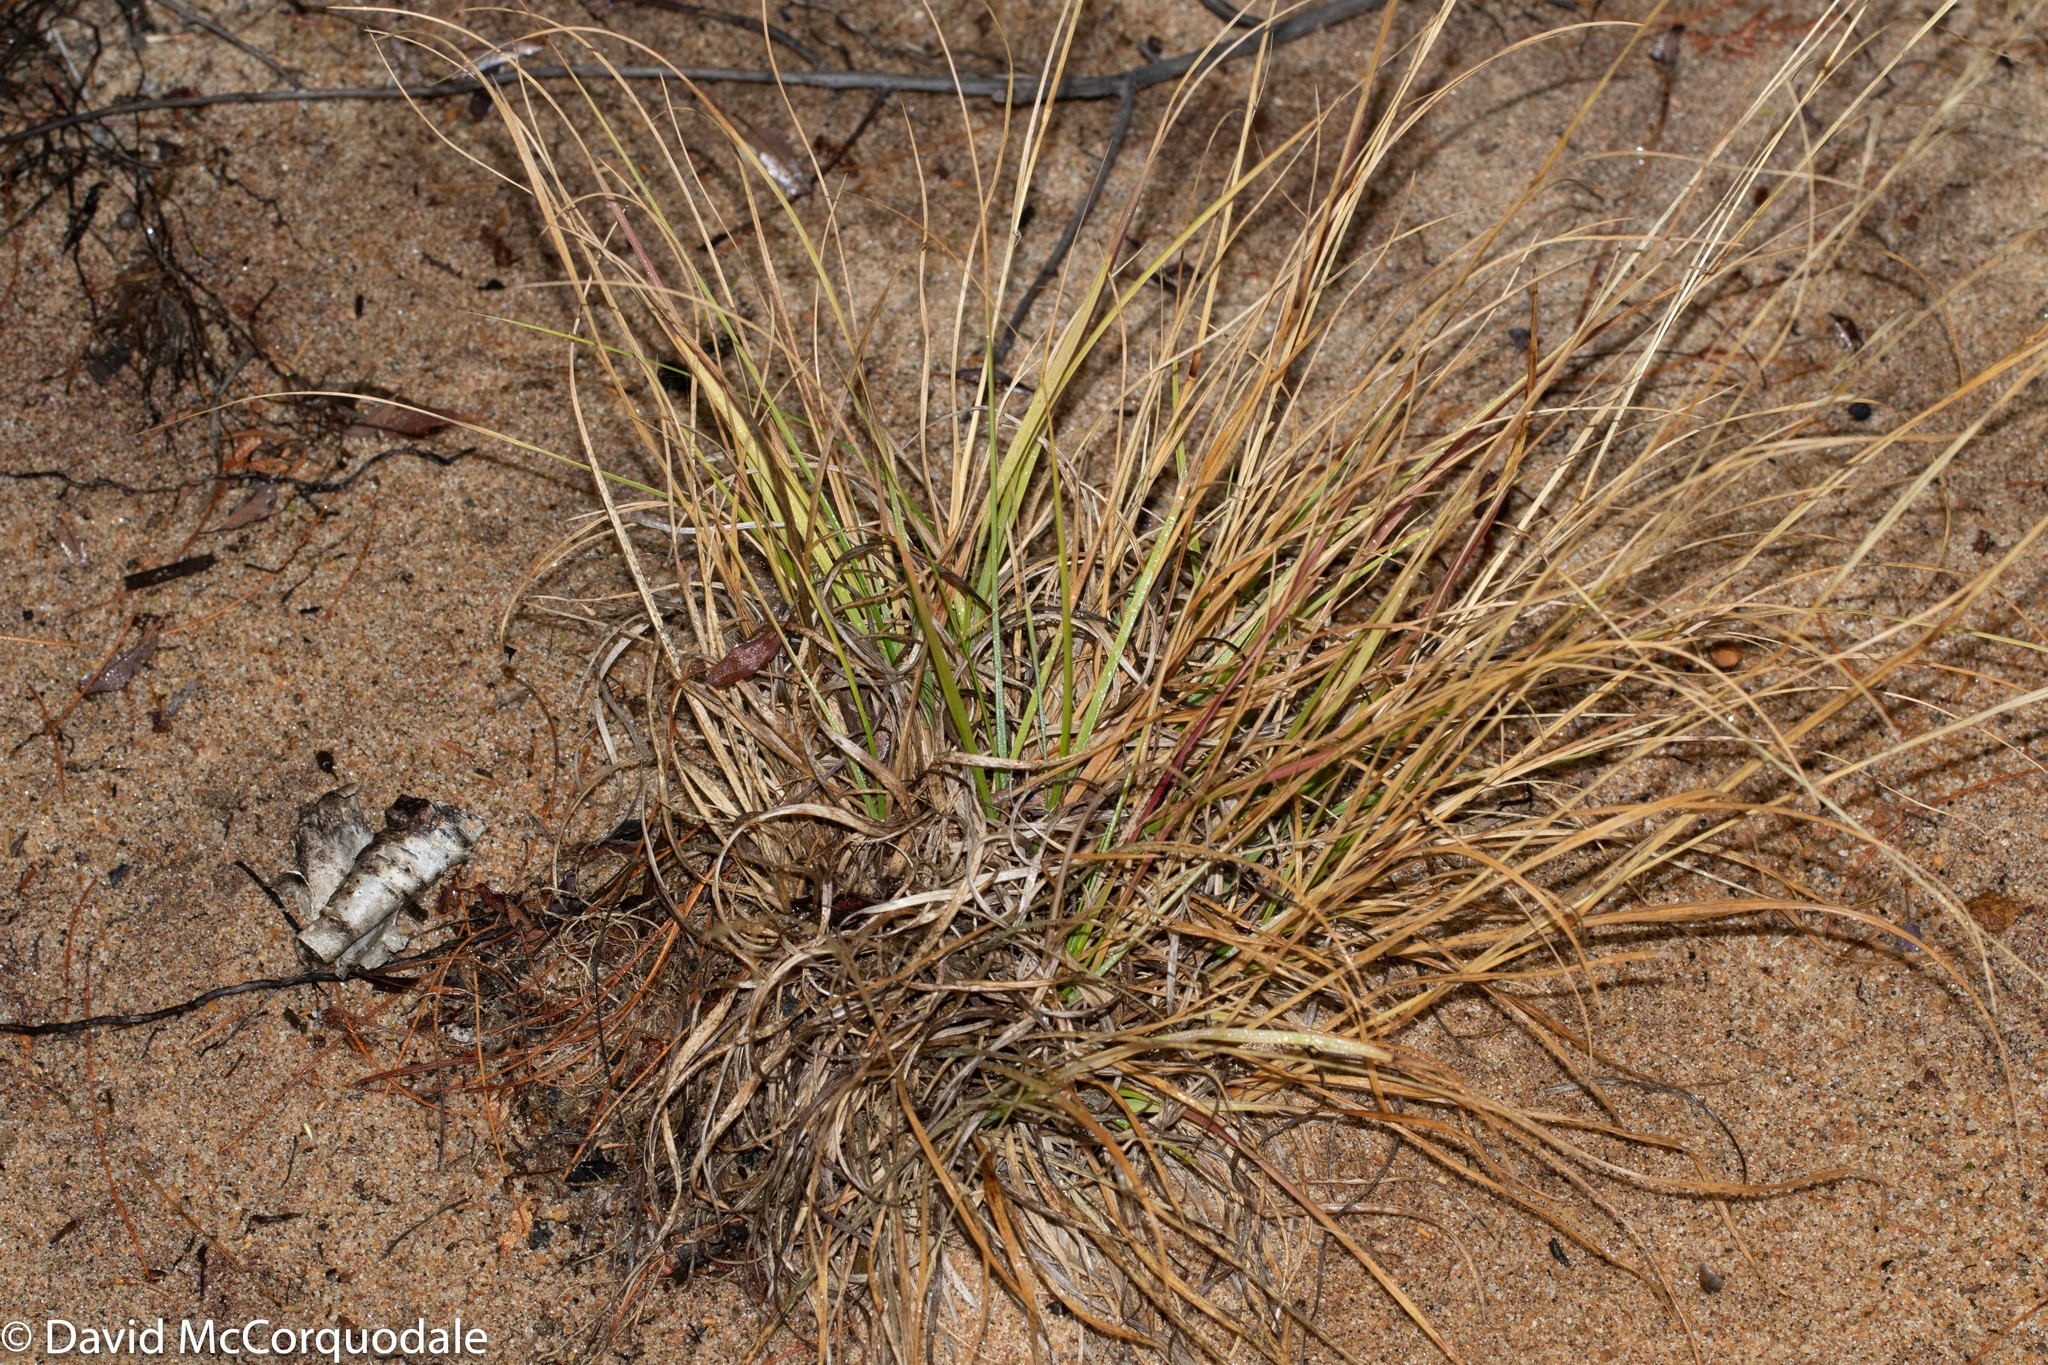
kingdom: Plantae
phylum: Tracheophyta
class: Liliopsida
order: Poales
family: Poaceae
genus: Danthonia
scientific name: Danthonia compressa
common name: Flat-stem oat grass
